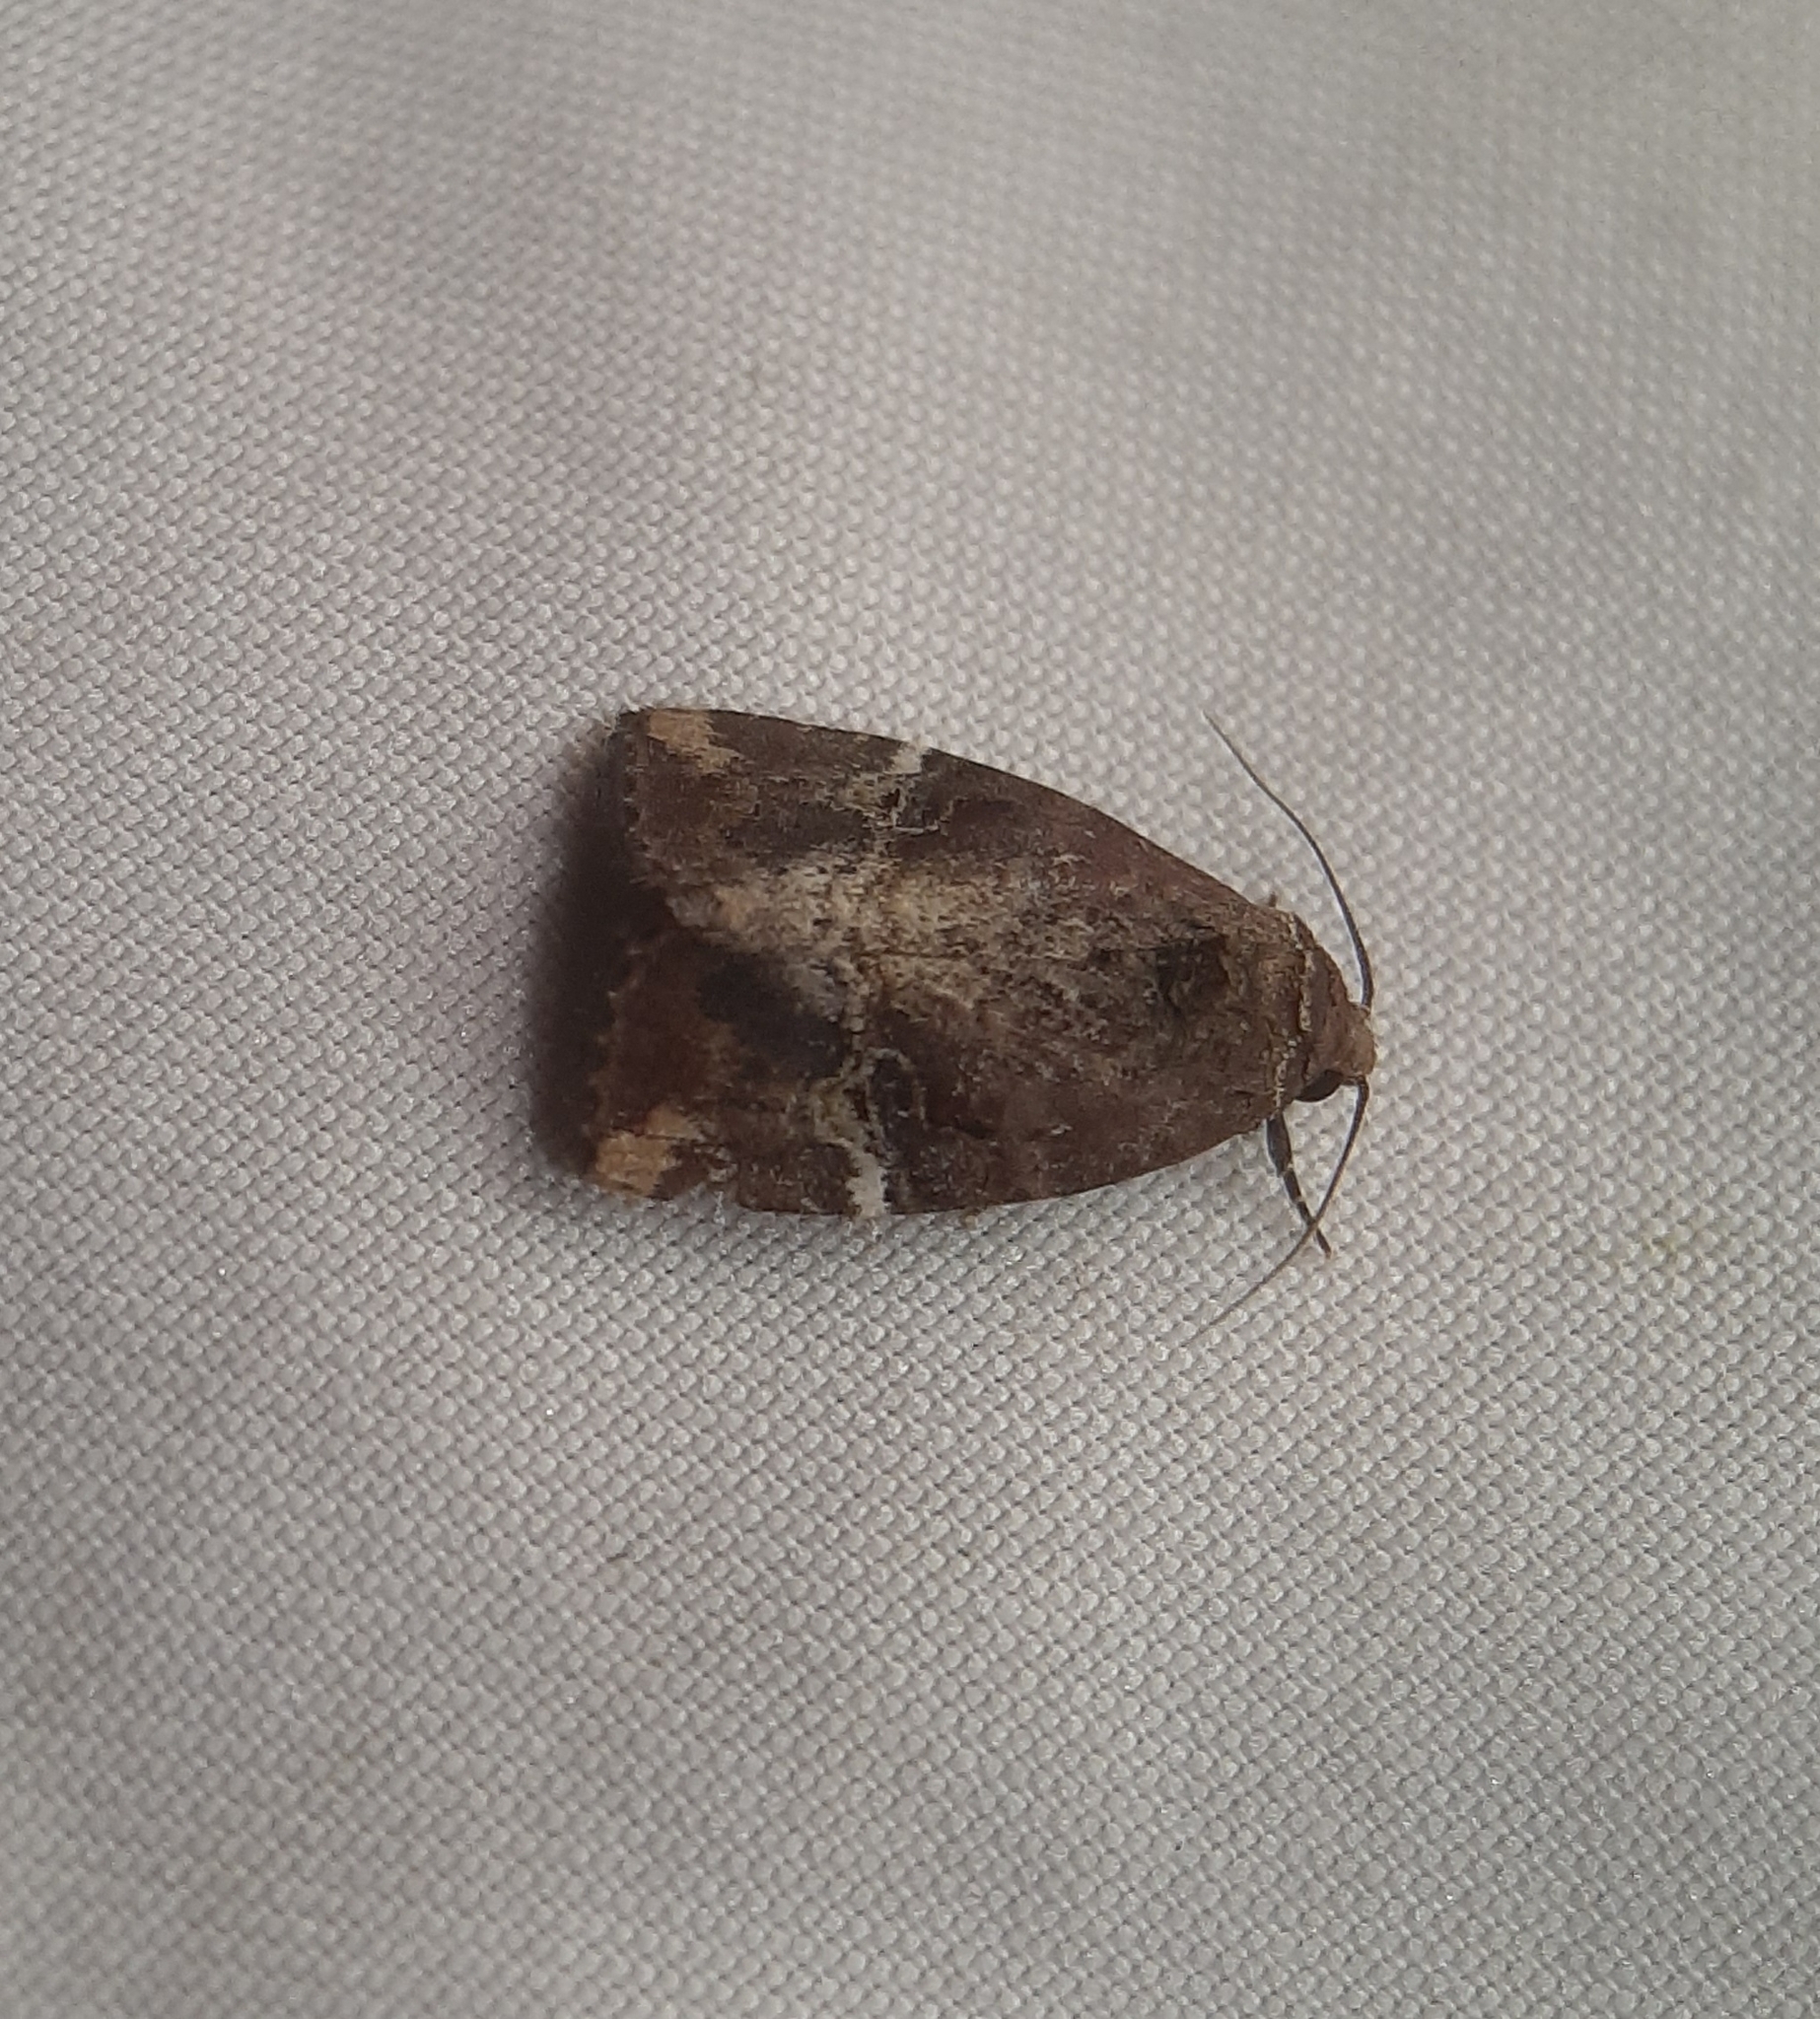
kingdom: Animalia
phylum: Arthropoda
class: Insecta
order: Lepidoptera
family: Noctuidae
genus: Elaphria
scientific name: Elaphria versicolor
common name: Fir harlequin
